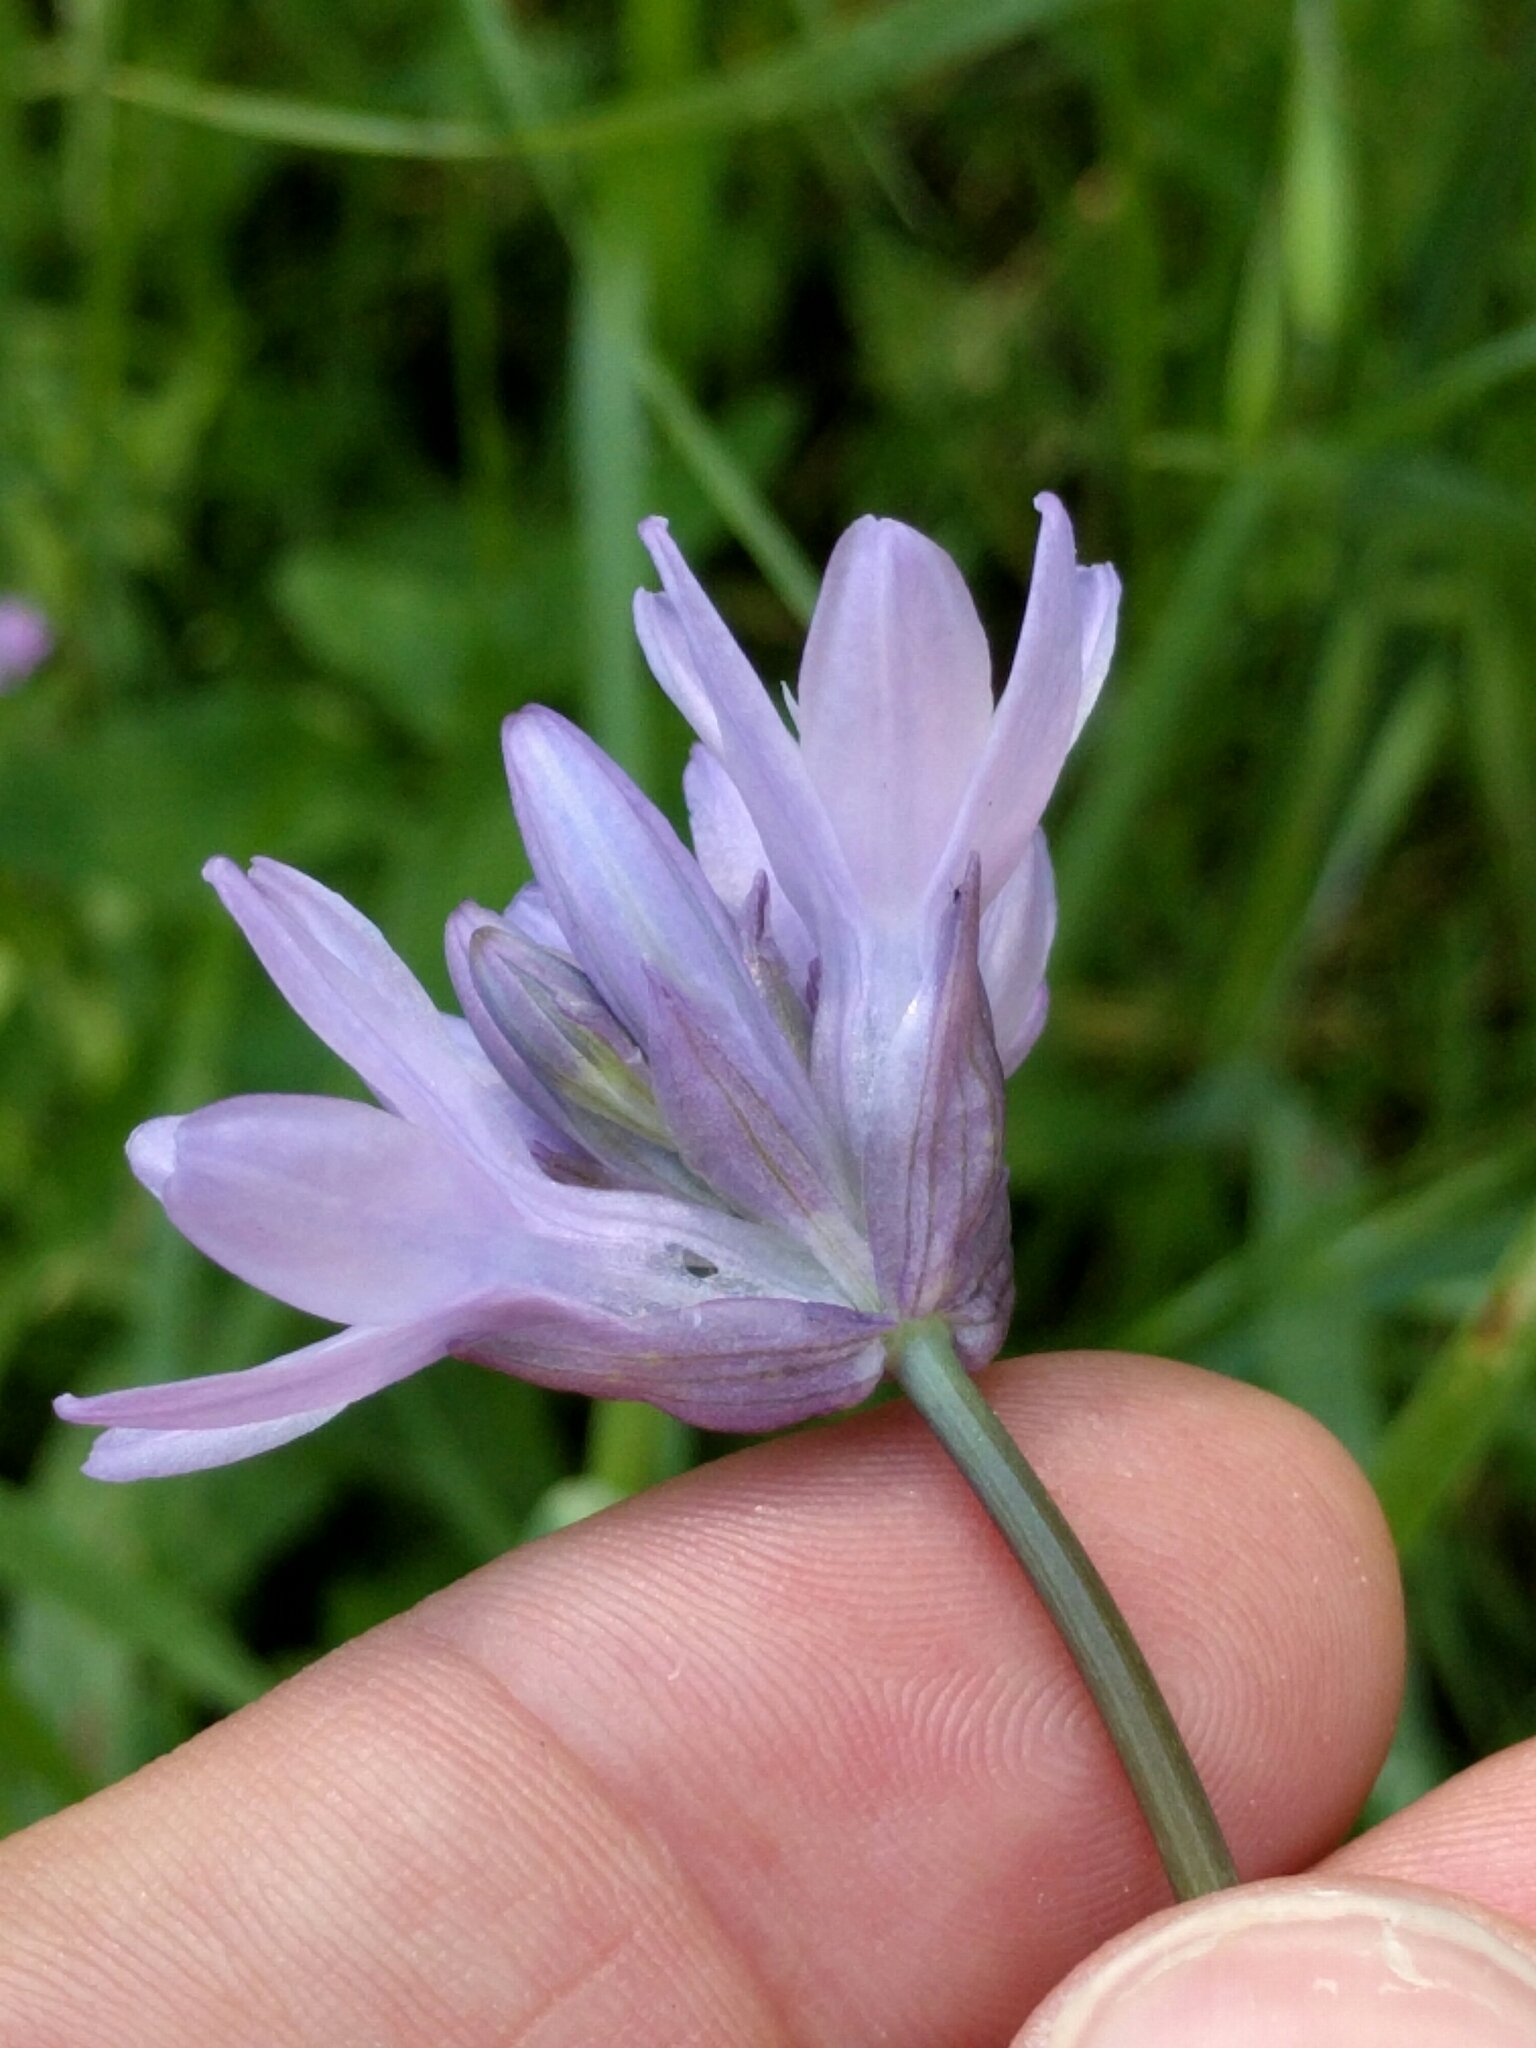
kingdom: Plantae
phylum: Tracheophyta
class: Liliopsida
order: Asparagales
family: Asparagaceae
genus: Dichelostemma
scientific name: Dichelostemma congestum
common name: Fork-tooth ookow
